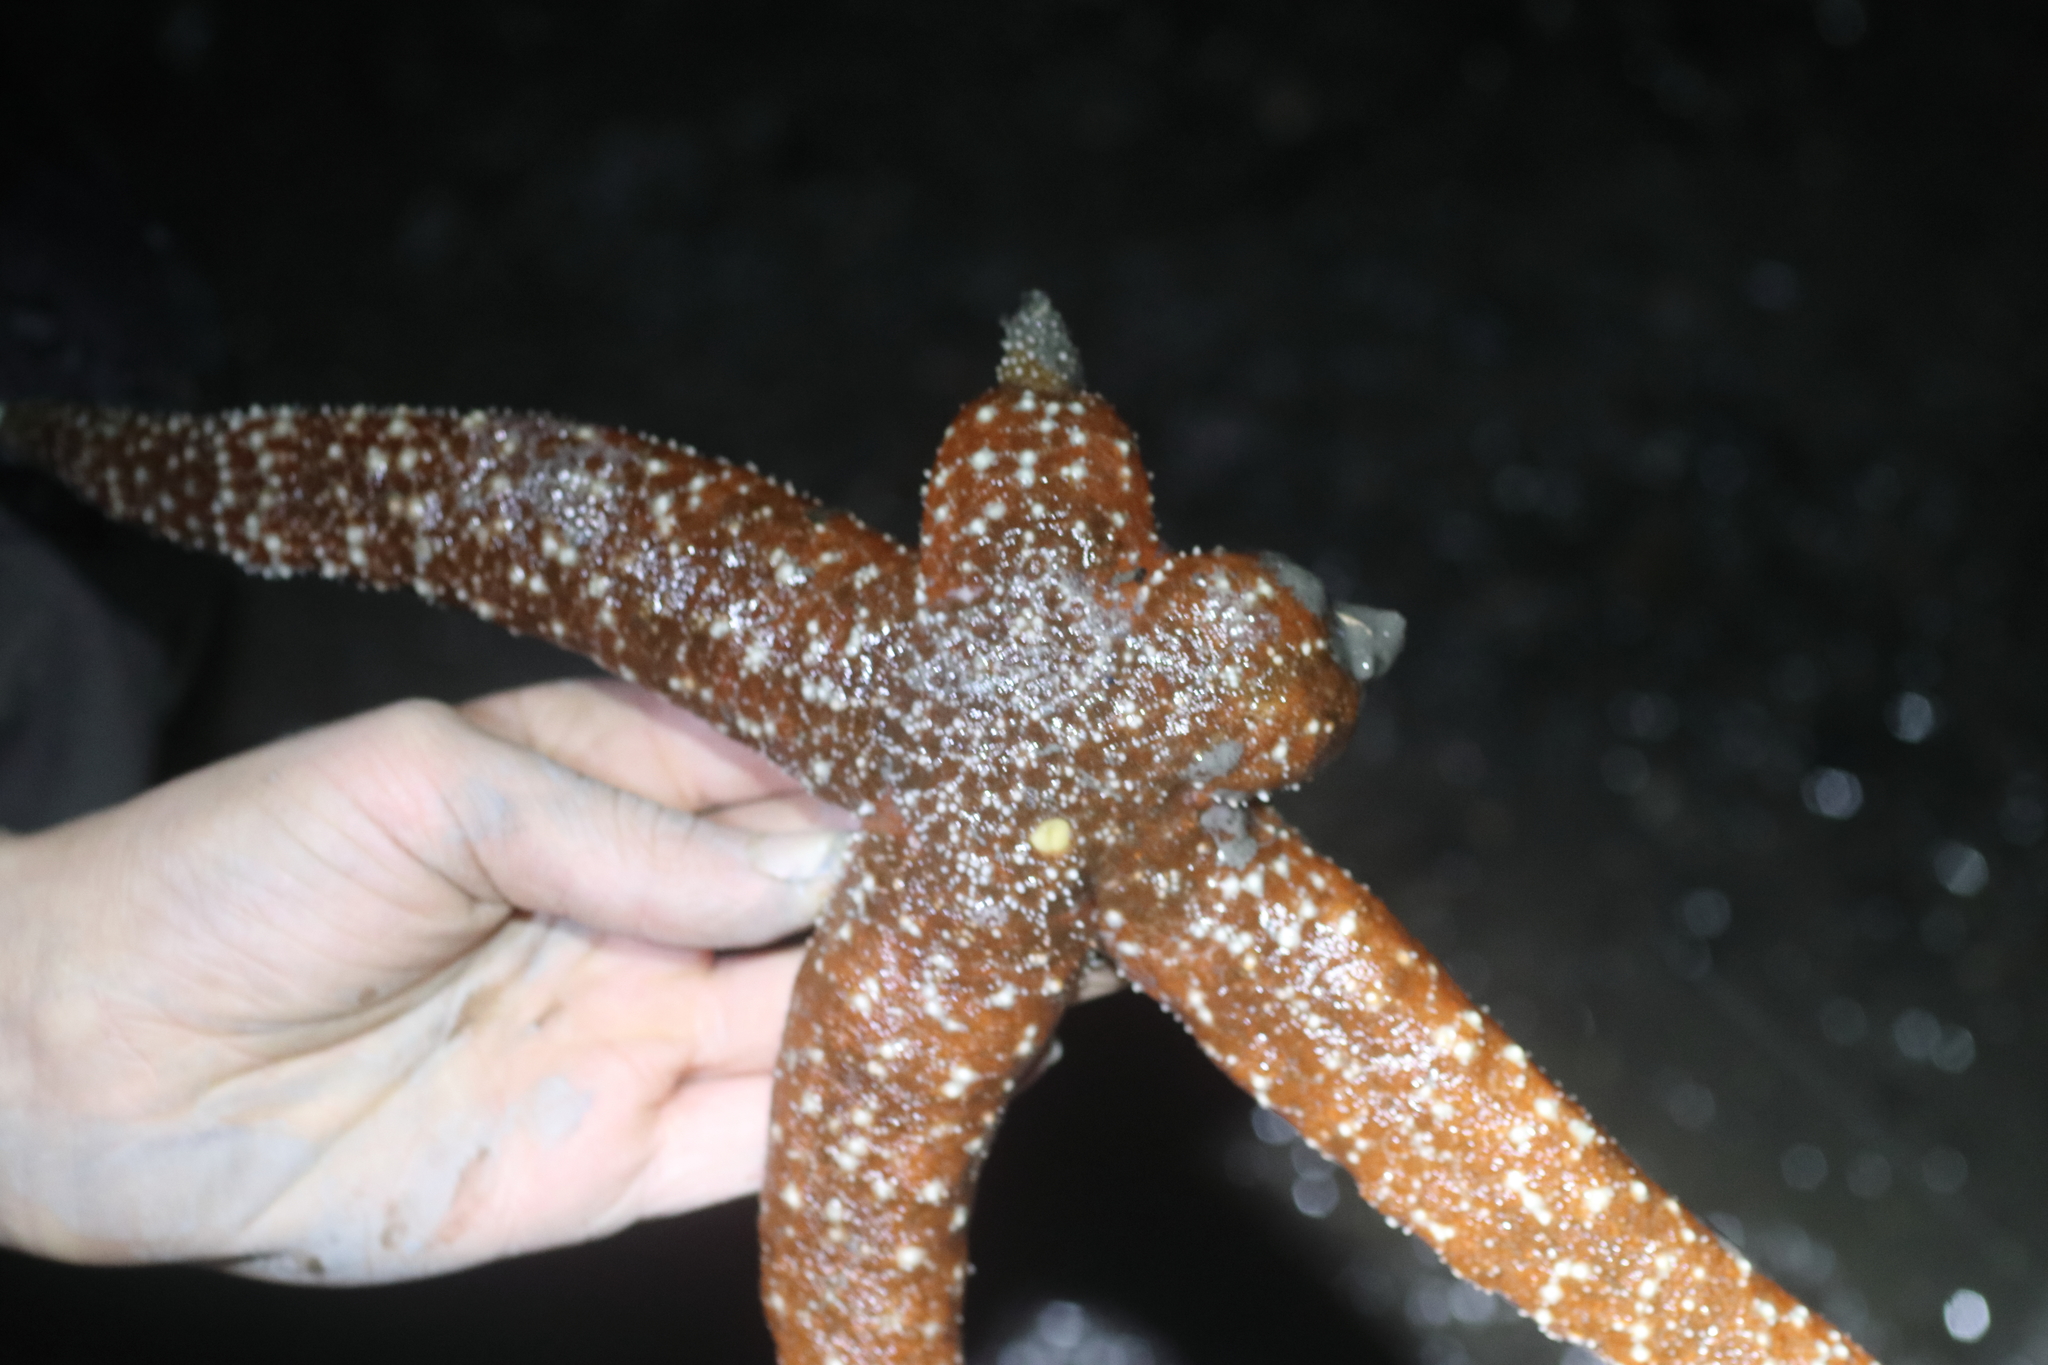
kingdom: Animalia
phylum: Echinodermata
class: Asteroidea
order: Forcipulatida
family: Asteriidae
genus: Evasterias
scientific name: Evasterias troschelii
